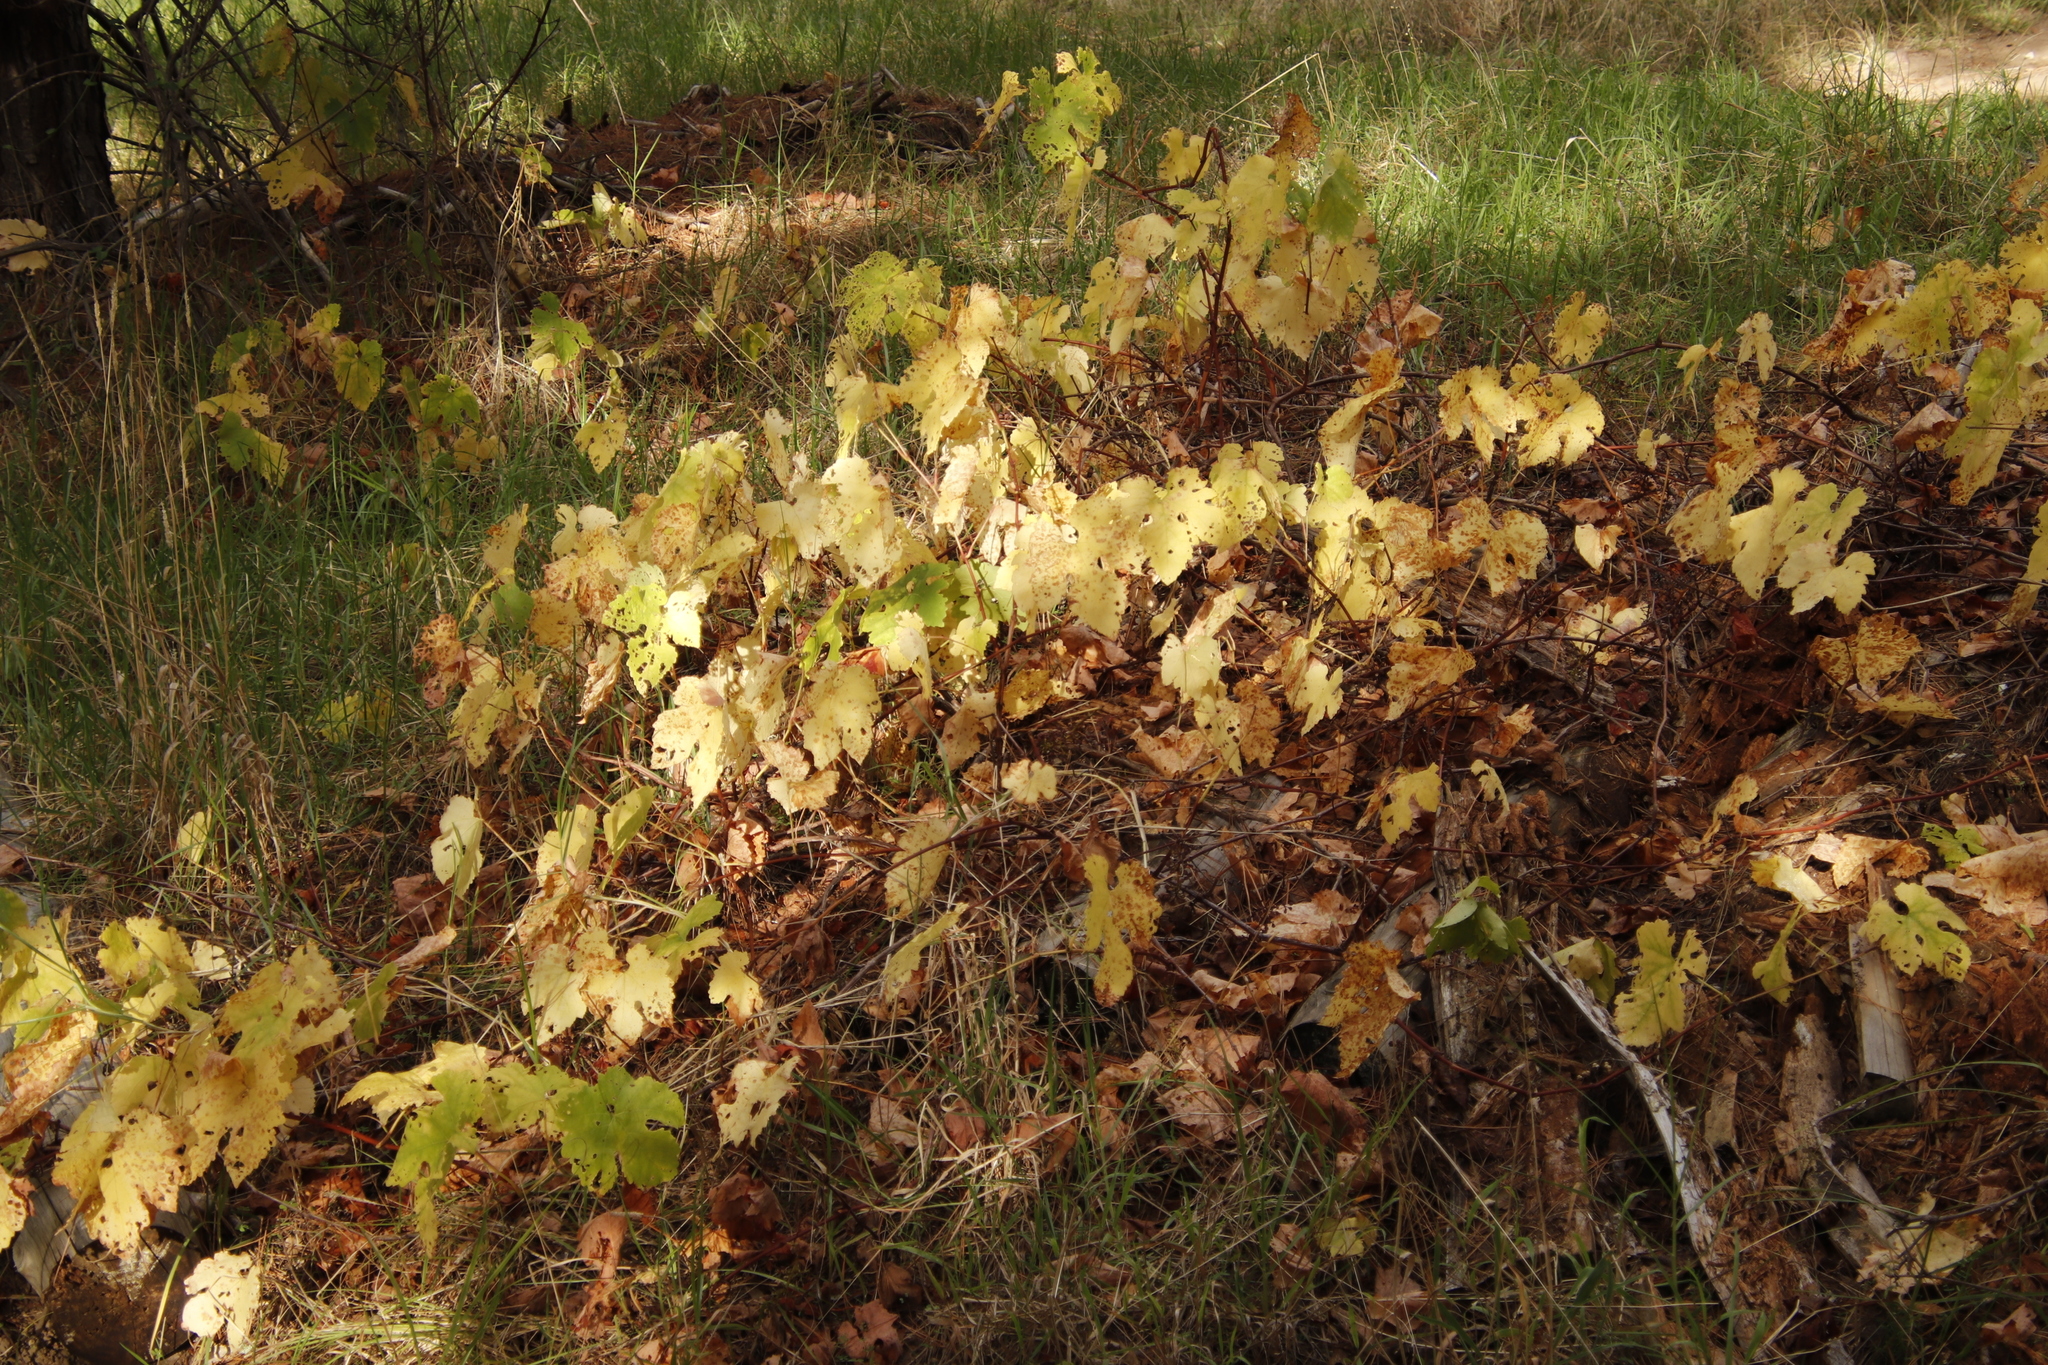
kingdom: Plantae
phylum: Tracheophyta
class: Magnoliopsida
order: Vitales
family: Vitaceae
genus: Vitis
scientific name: Vitis vinifera
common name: Grape-vine
